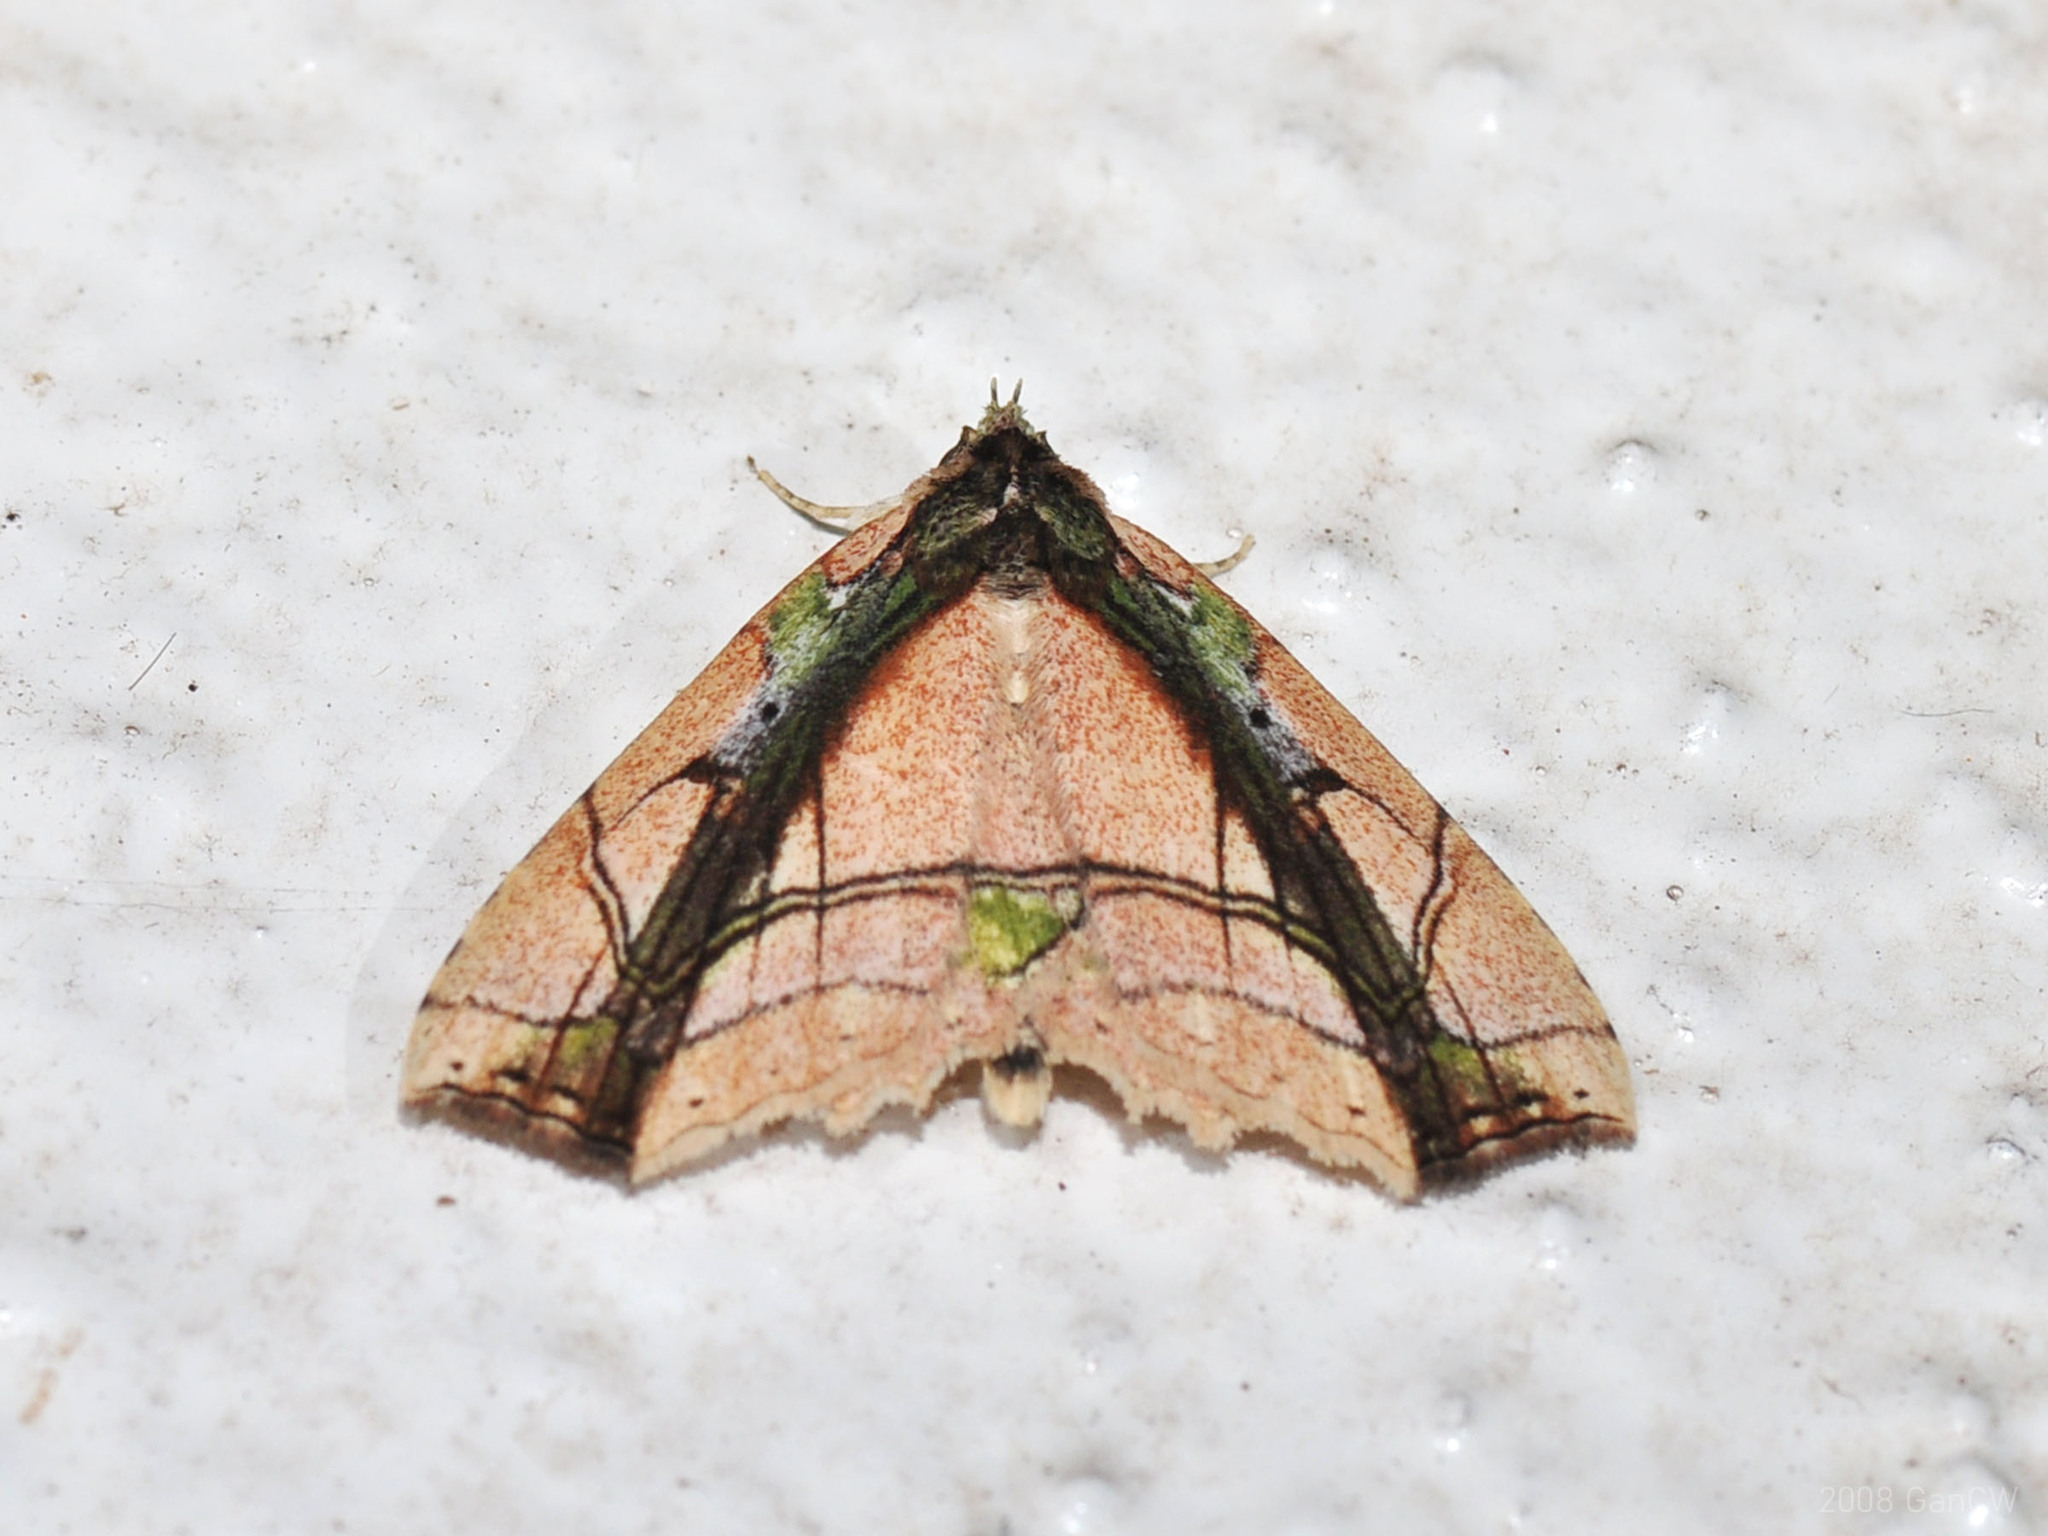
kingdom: Animalia
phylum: Arthropoda
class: Insecta
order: Lepidoptera
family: Erebidae
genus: Tamba
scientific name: Tamba lala
